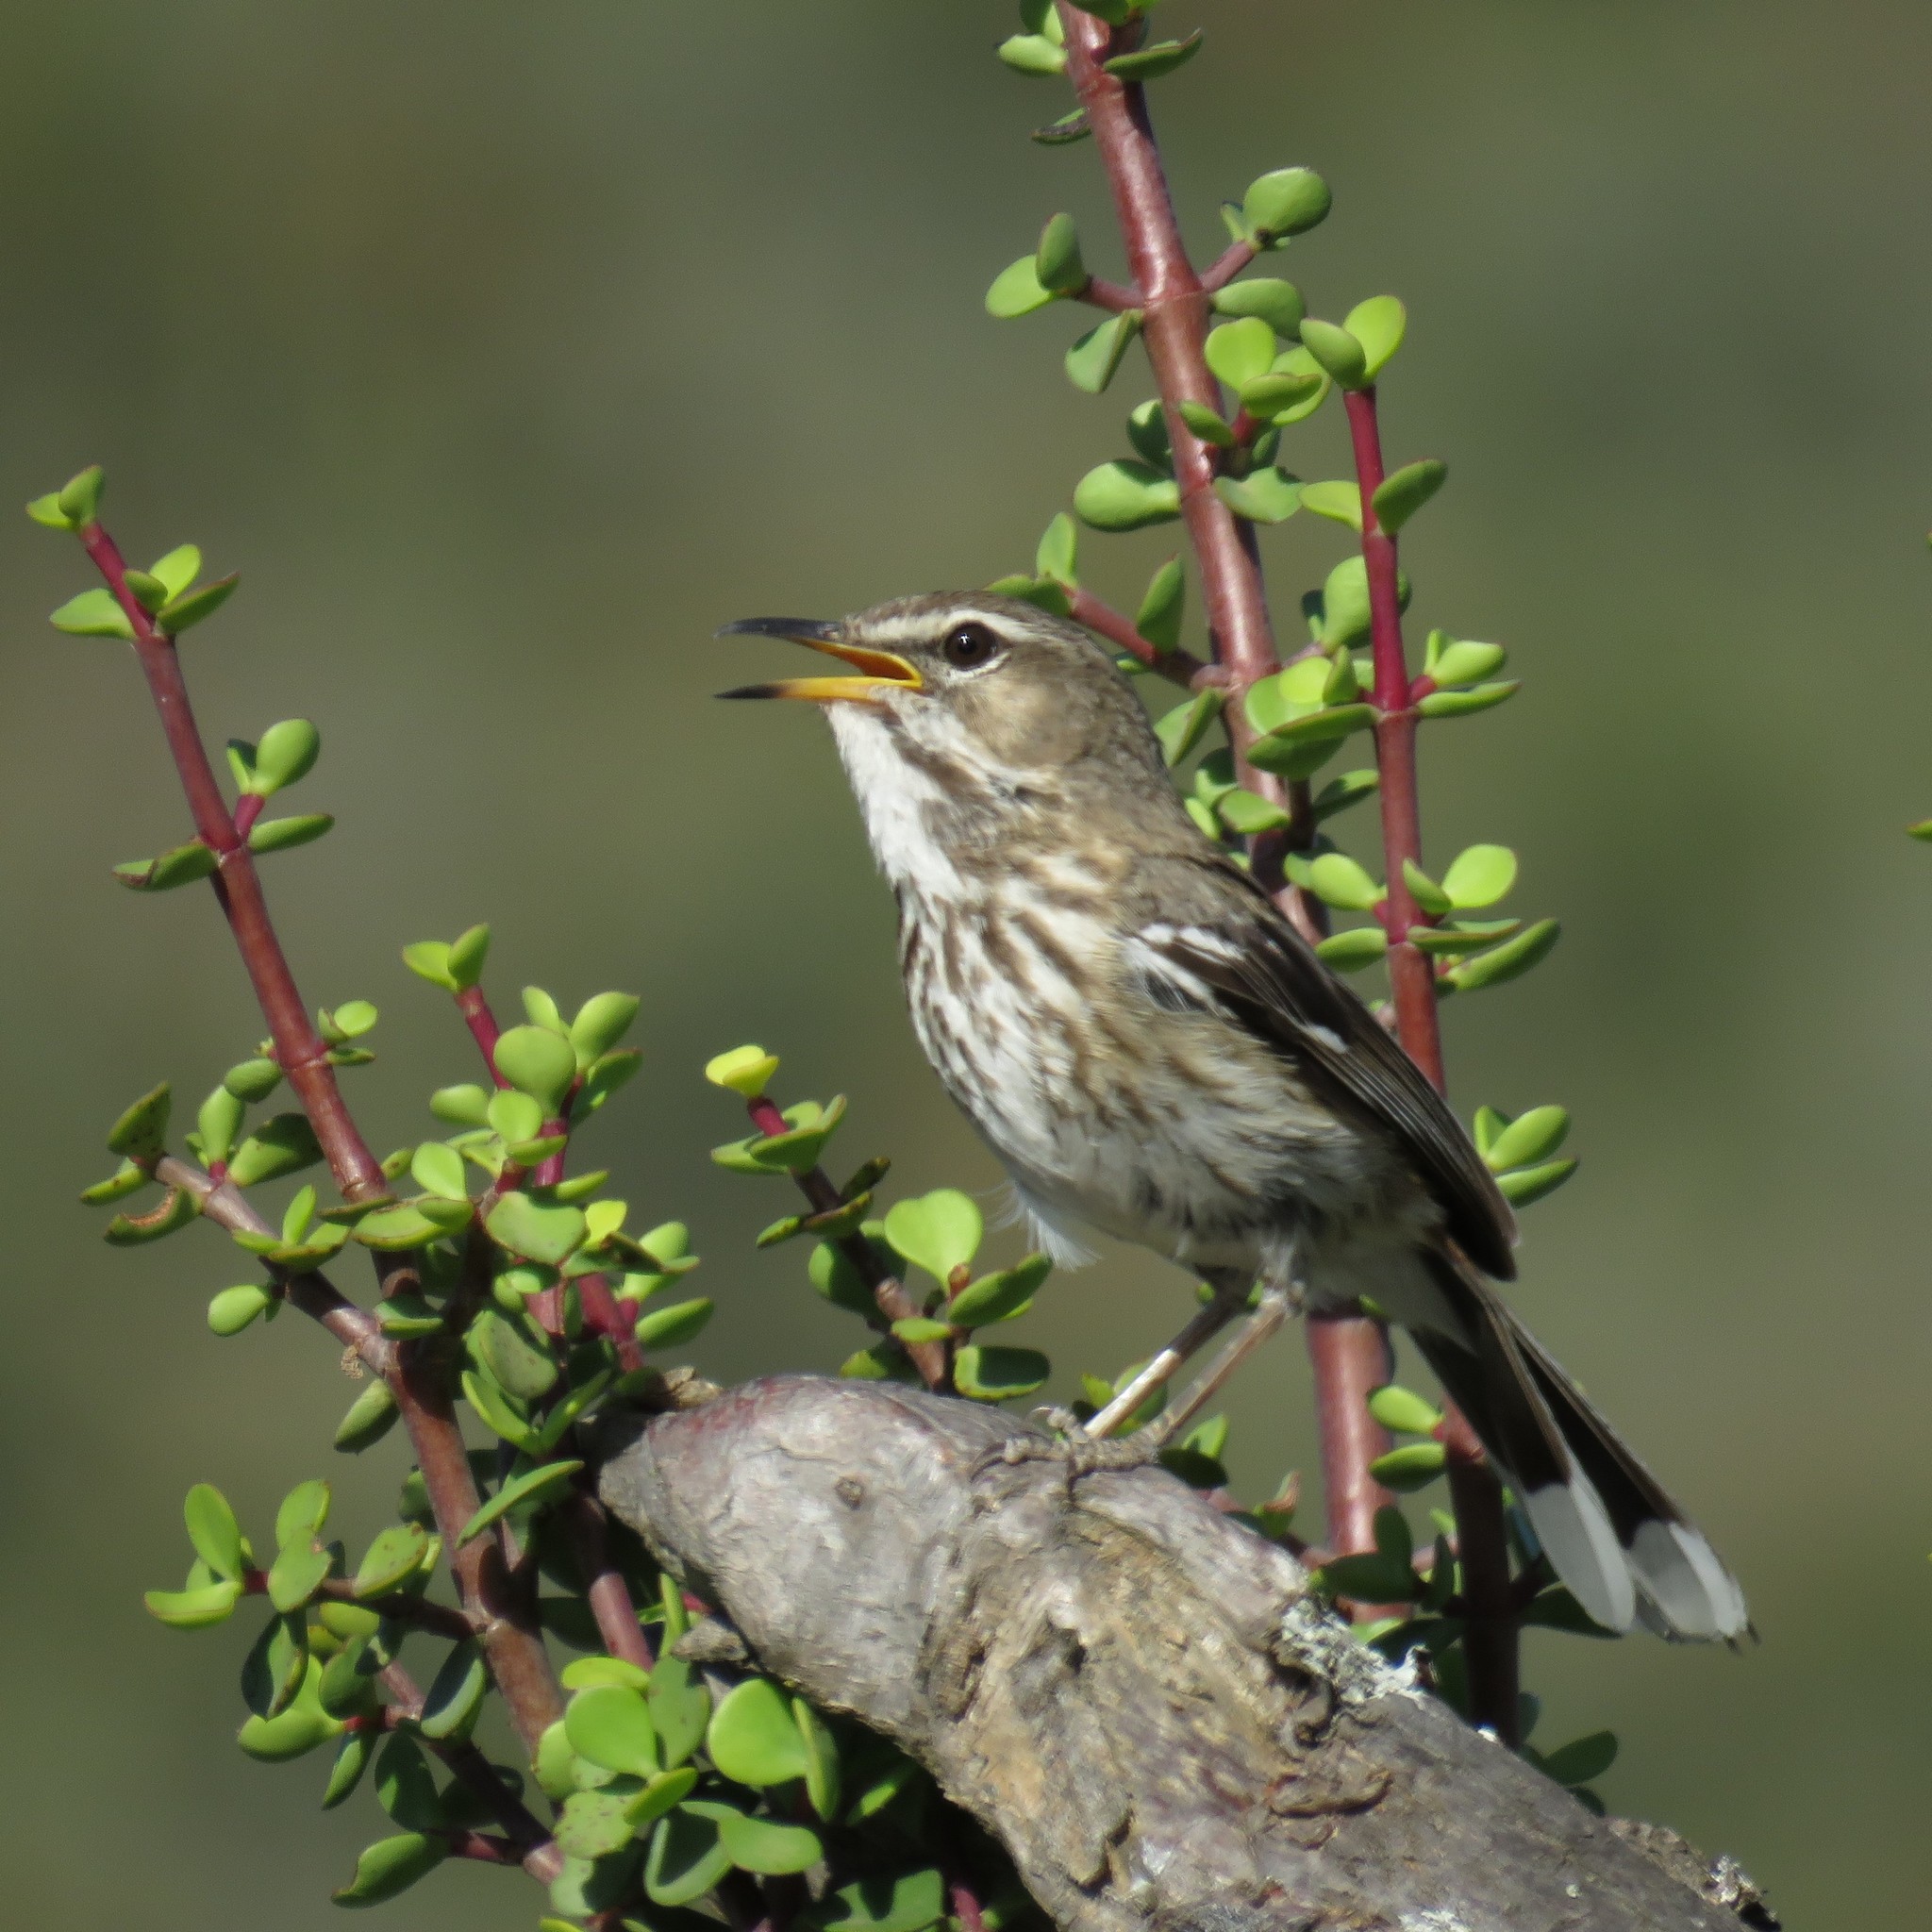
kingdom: Animalia
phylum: Chordata
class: Aves
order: Passeriformes
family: Muscicapidae
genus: Erythropygia
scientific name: Erythropygia leucophrys
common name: White-browed scrub robin
